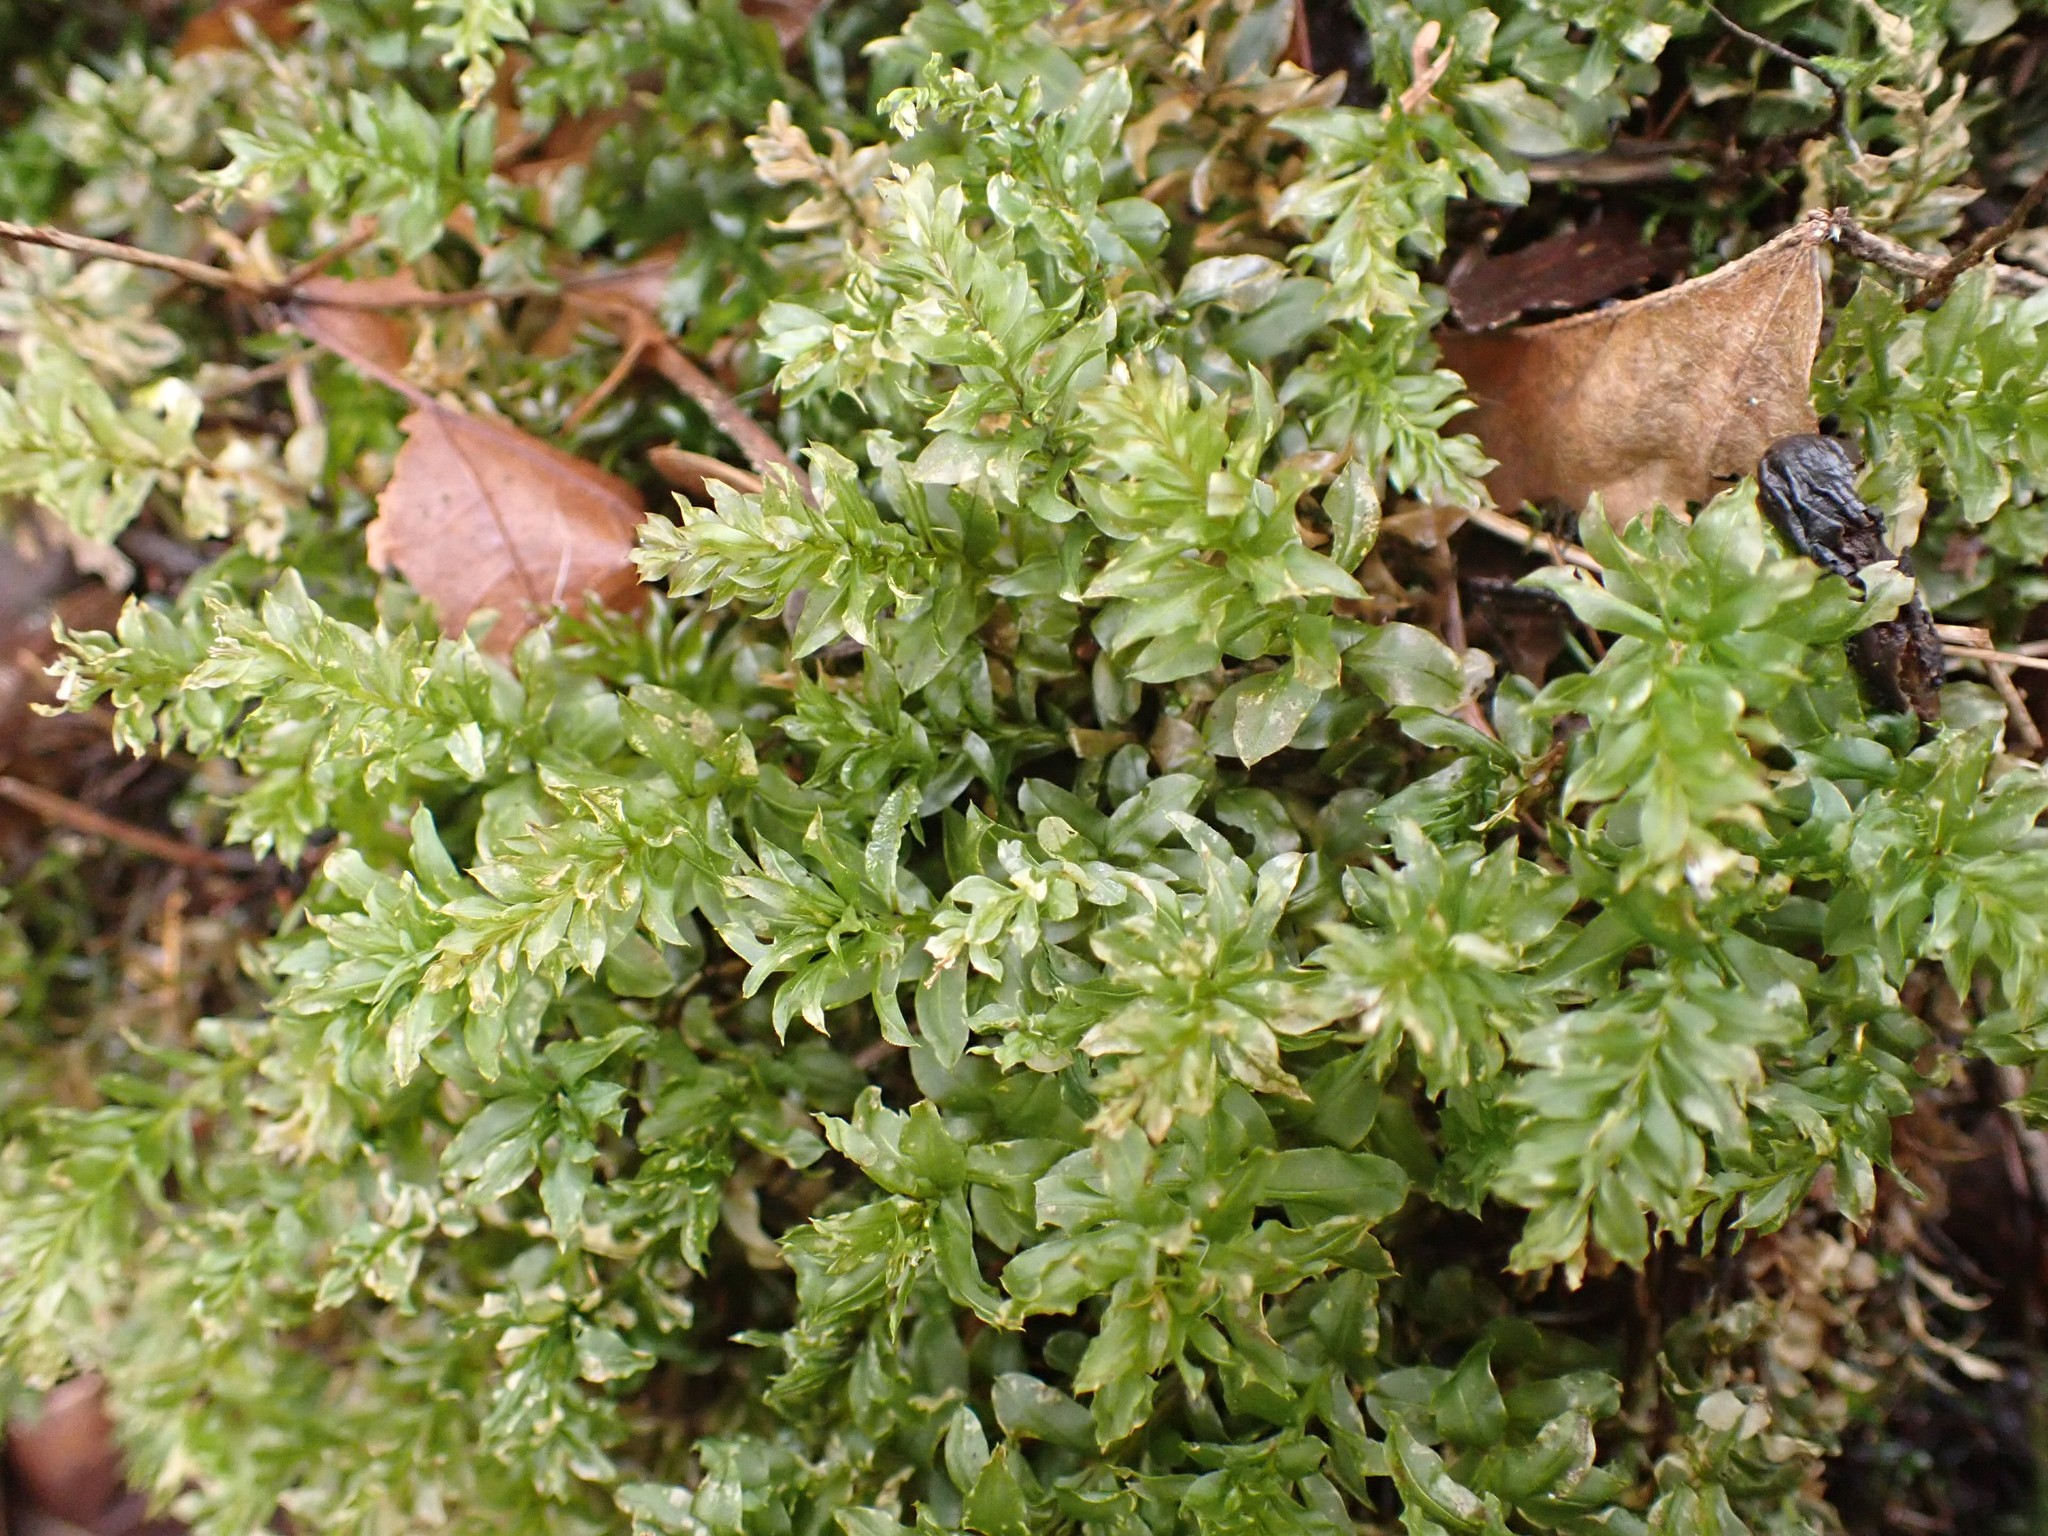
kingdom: Plantae
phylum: Bryophyta
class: Bryopsida
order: Bryales
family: Mniaceae
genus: Plagiomnium
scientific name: Plagiomnium insigne
